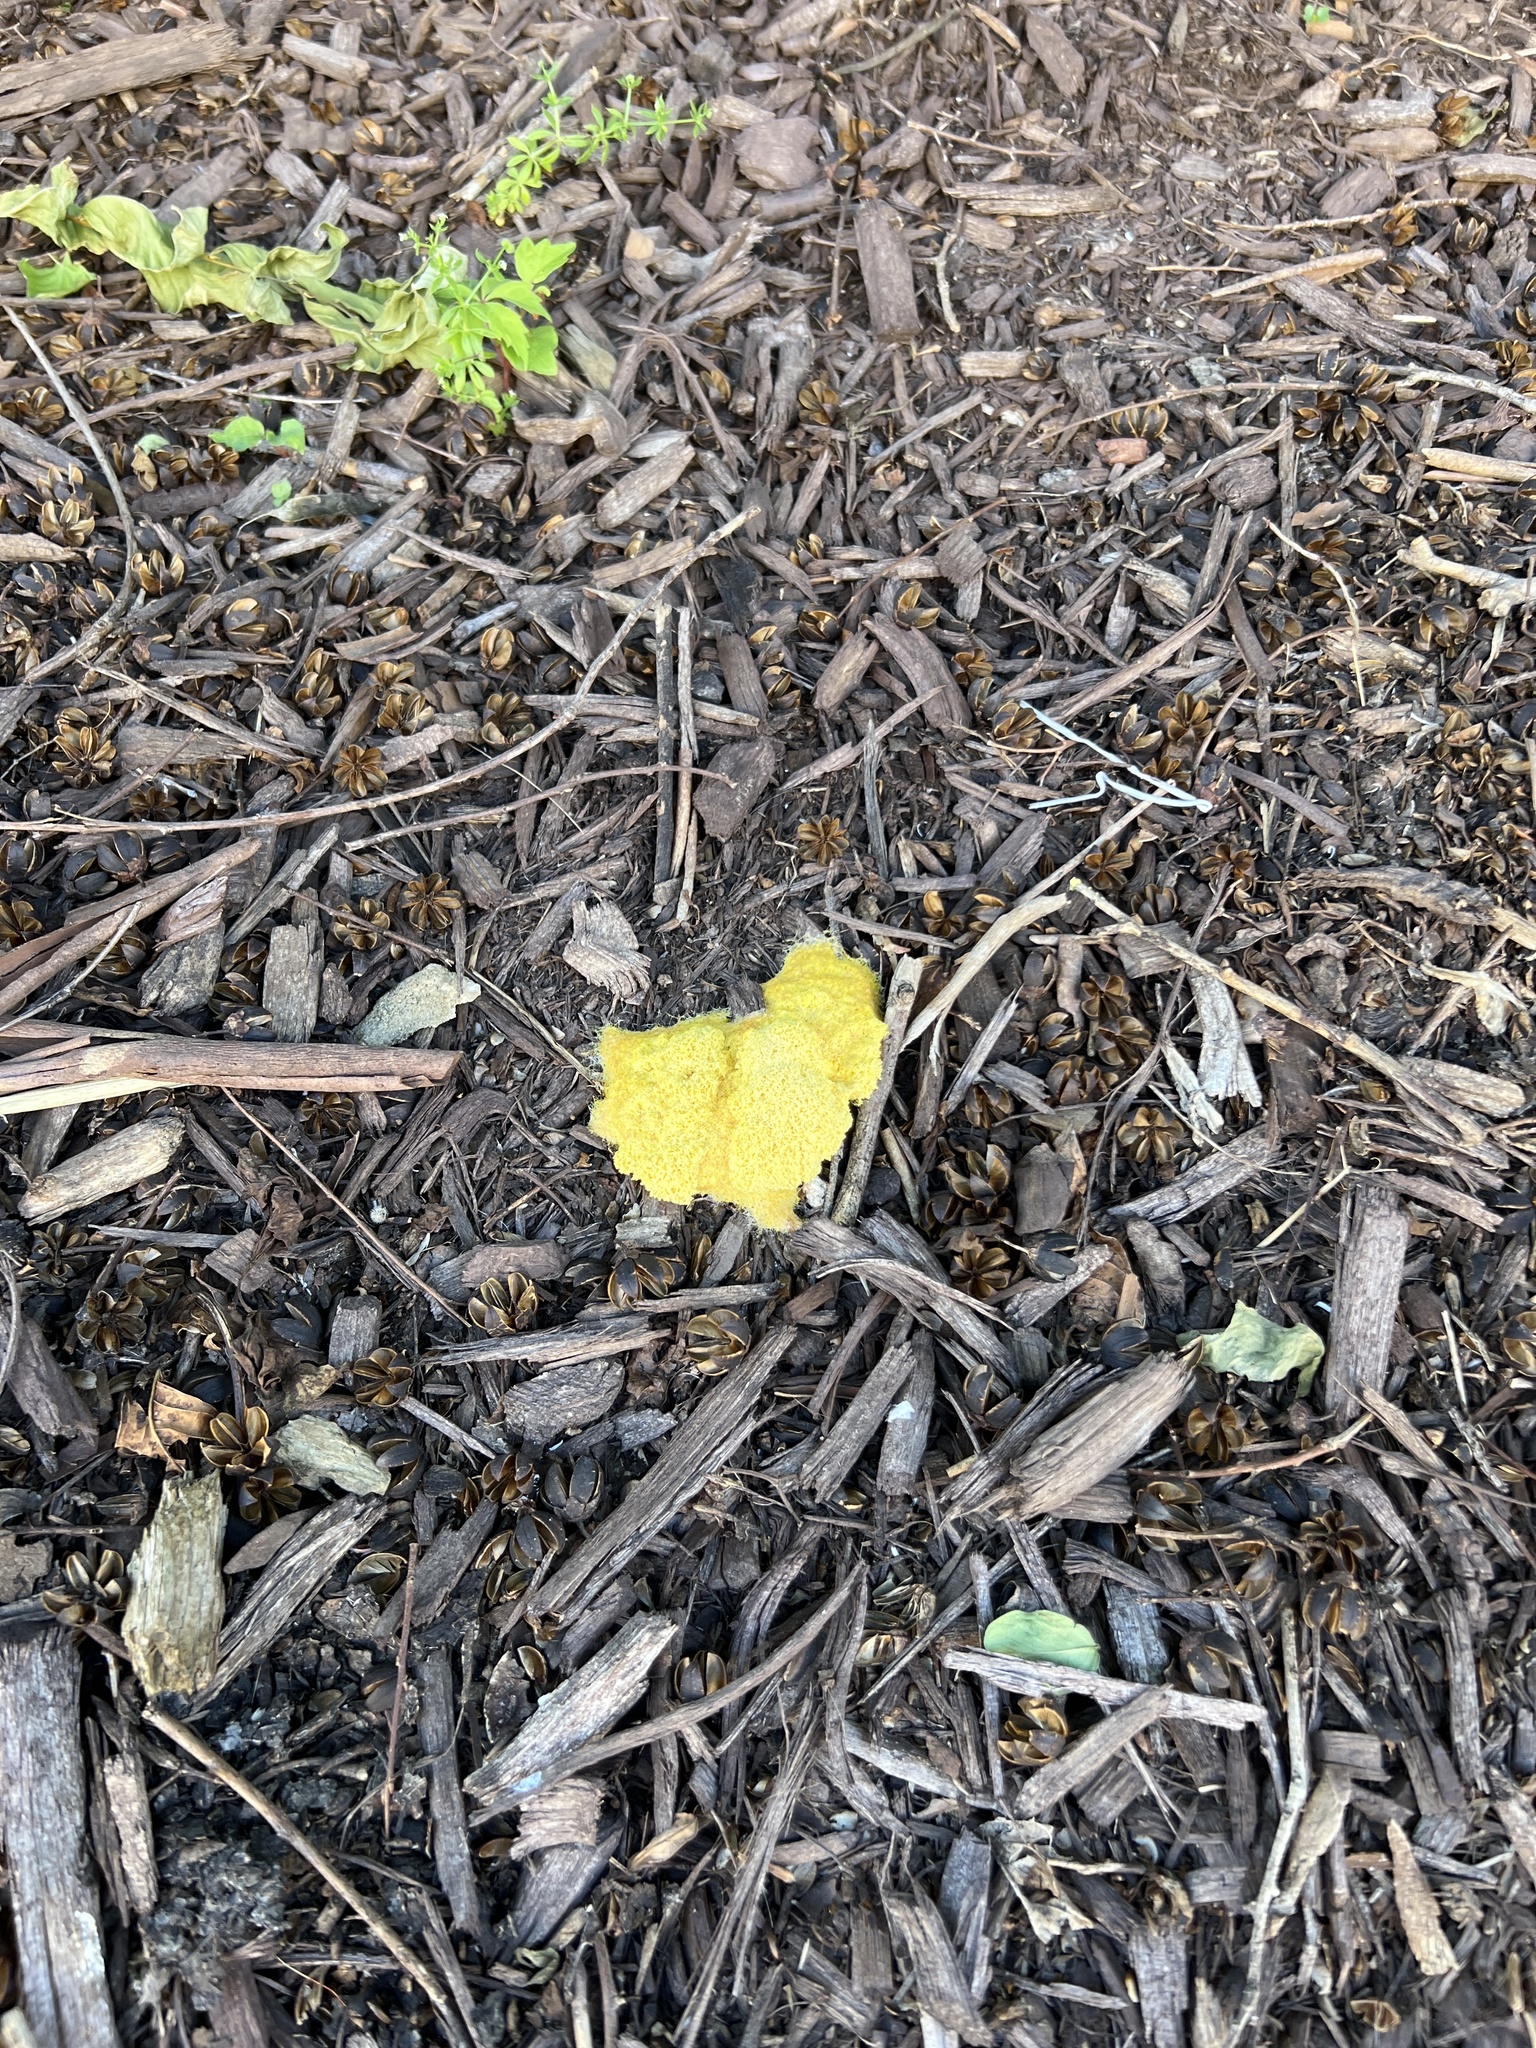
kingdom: Protozoa
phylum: Mycetozoa
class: Myxomycetes
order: Physarales
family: Physaraceae
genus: Fuligo
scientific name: Fuligo septica
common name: Dog vomit slime mold
